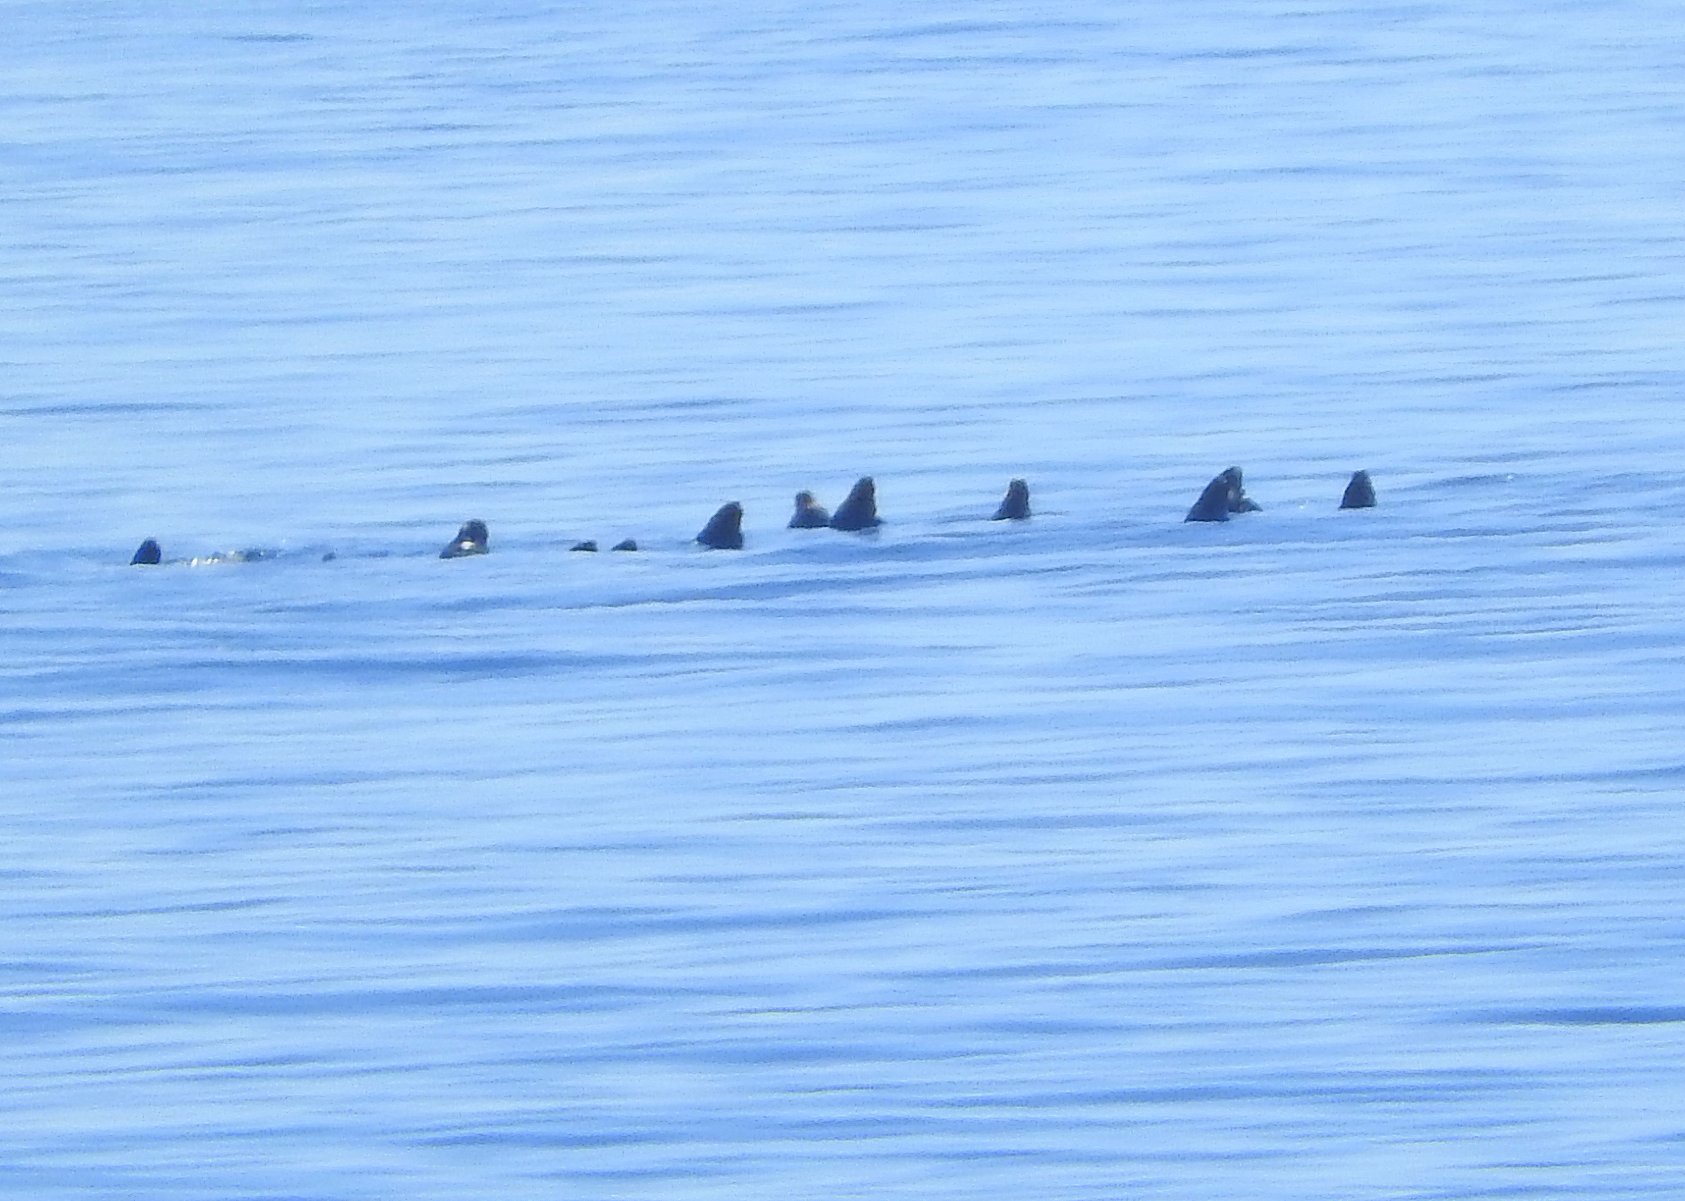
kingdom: Animalia
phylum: Chordata
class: Mammalia
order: Carnivora
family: Phocidae
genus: Halichoerus
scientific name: Halichoerus grypus
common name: Grey seal
